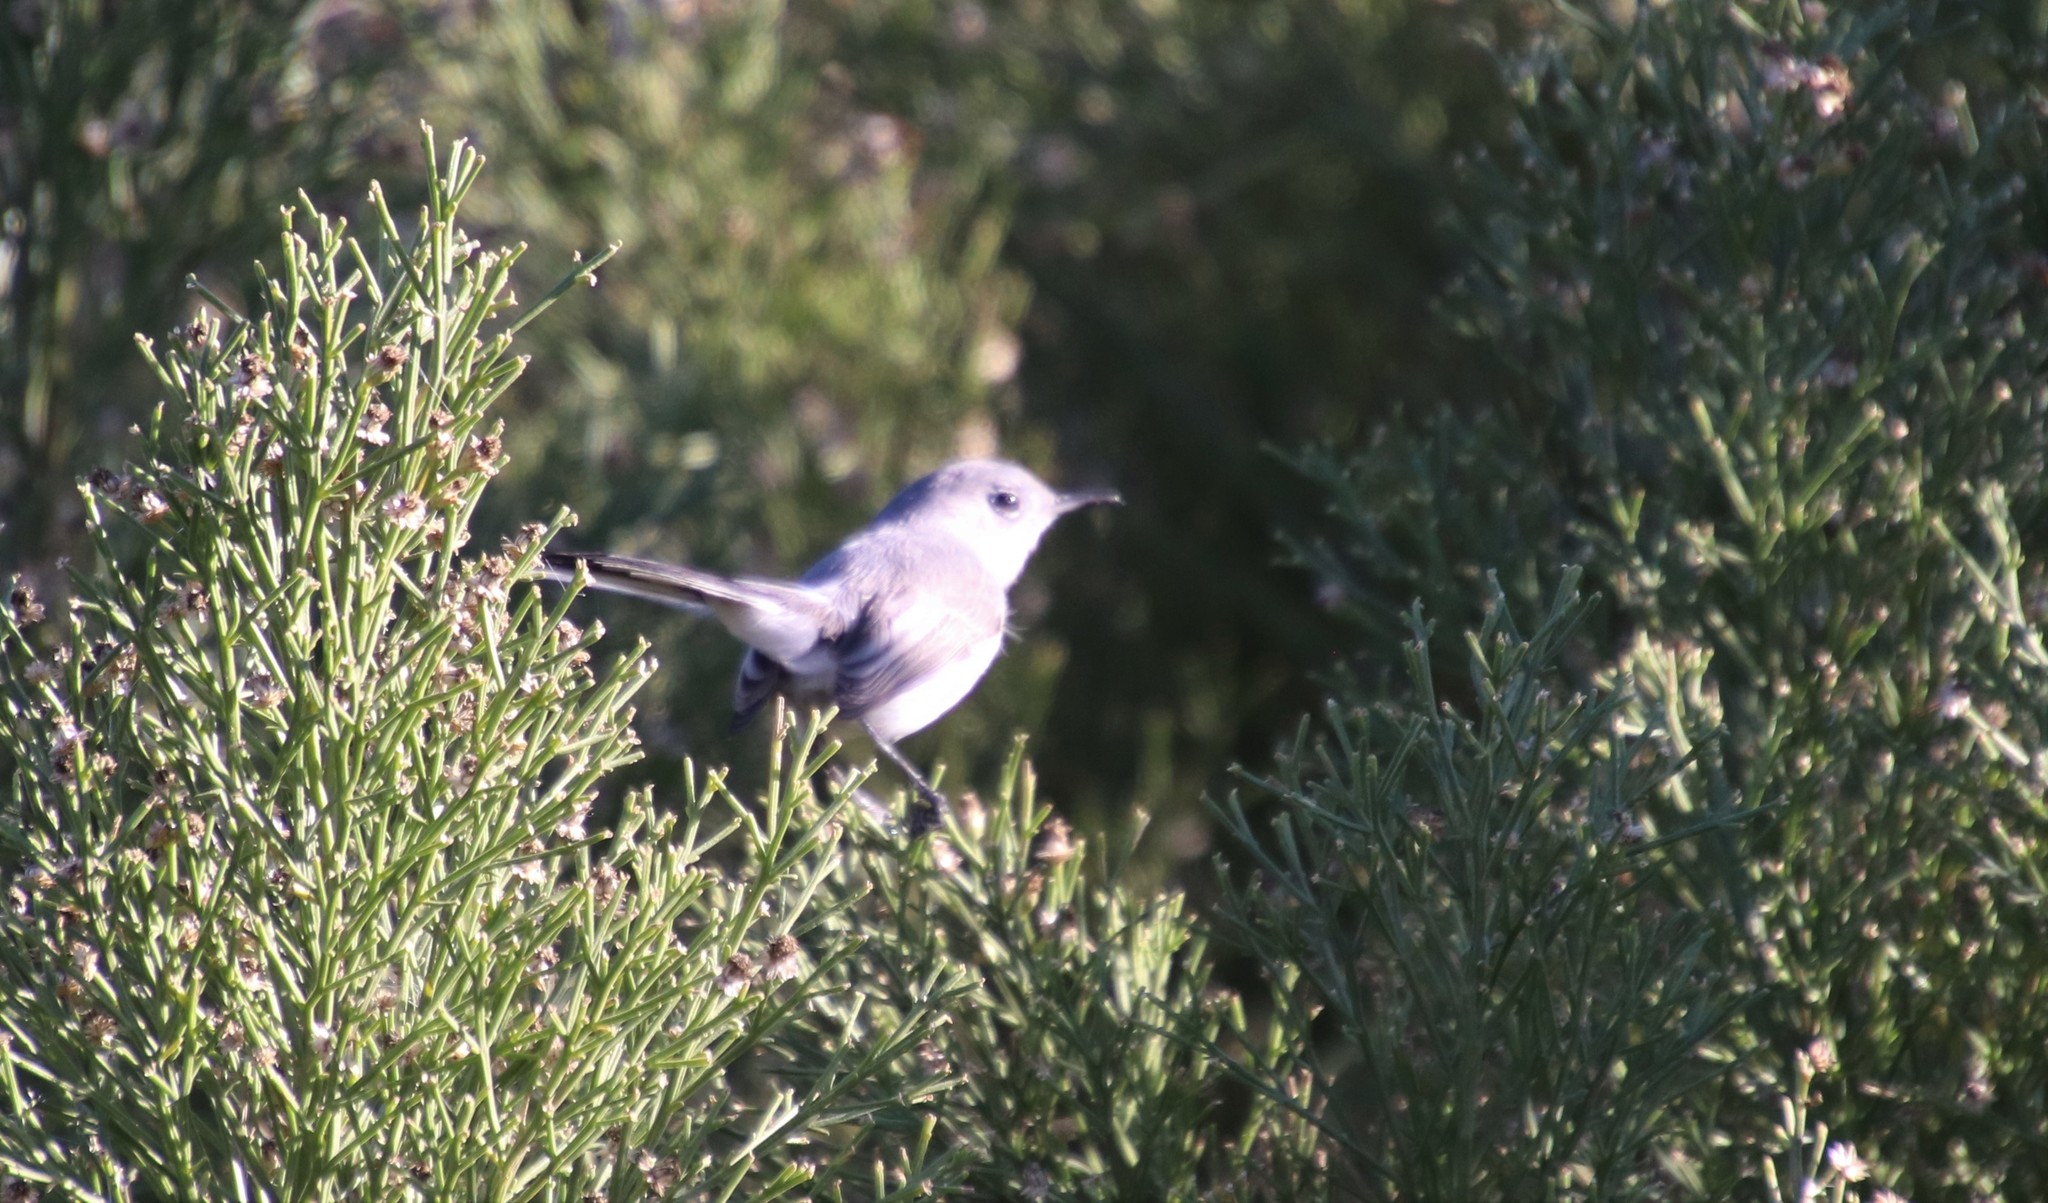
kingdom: Animalia
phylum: Chordata
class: Aves
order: Passeriformes
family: Polioptilidae
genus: Polioptila
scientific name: Polioptila caerulea
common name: Blue-gray gnatcatcher
